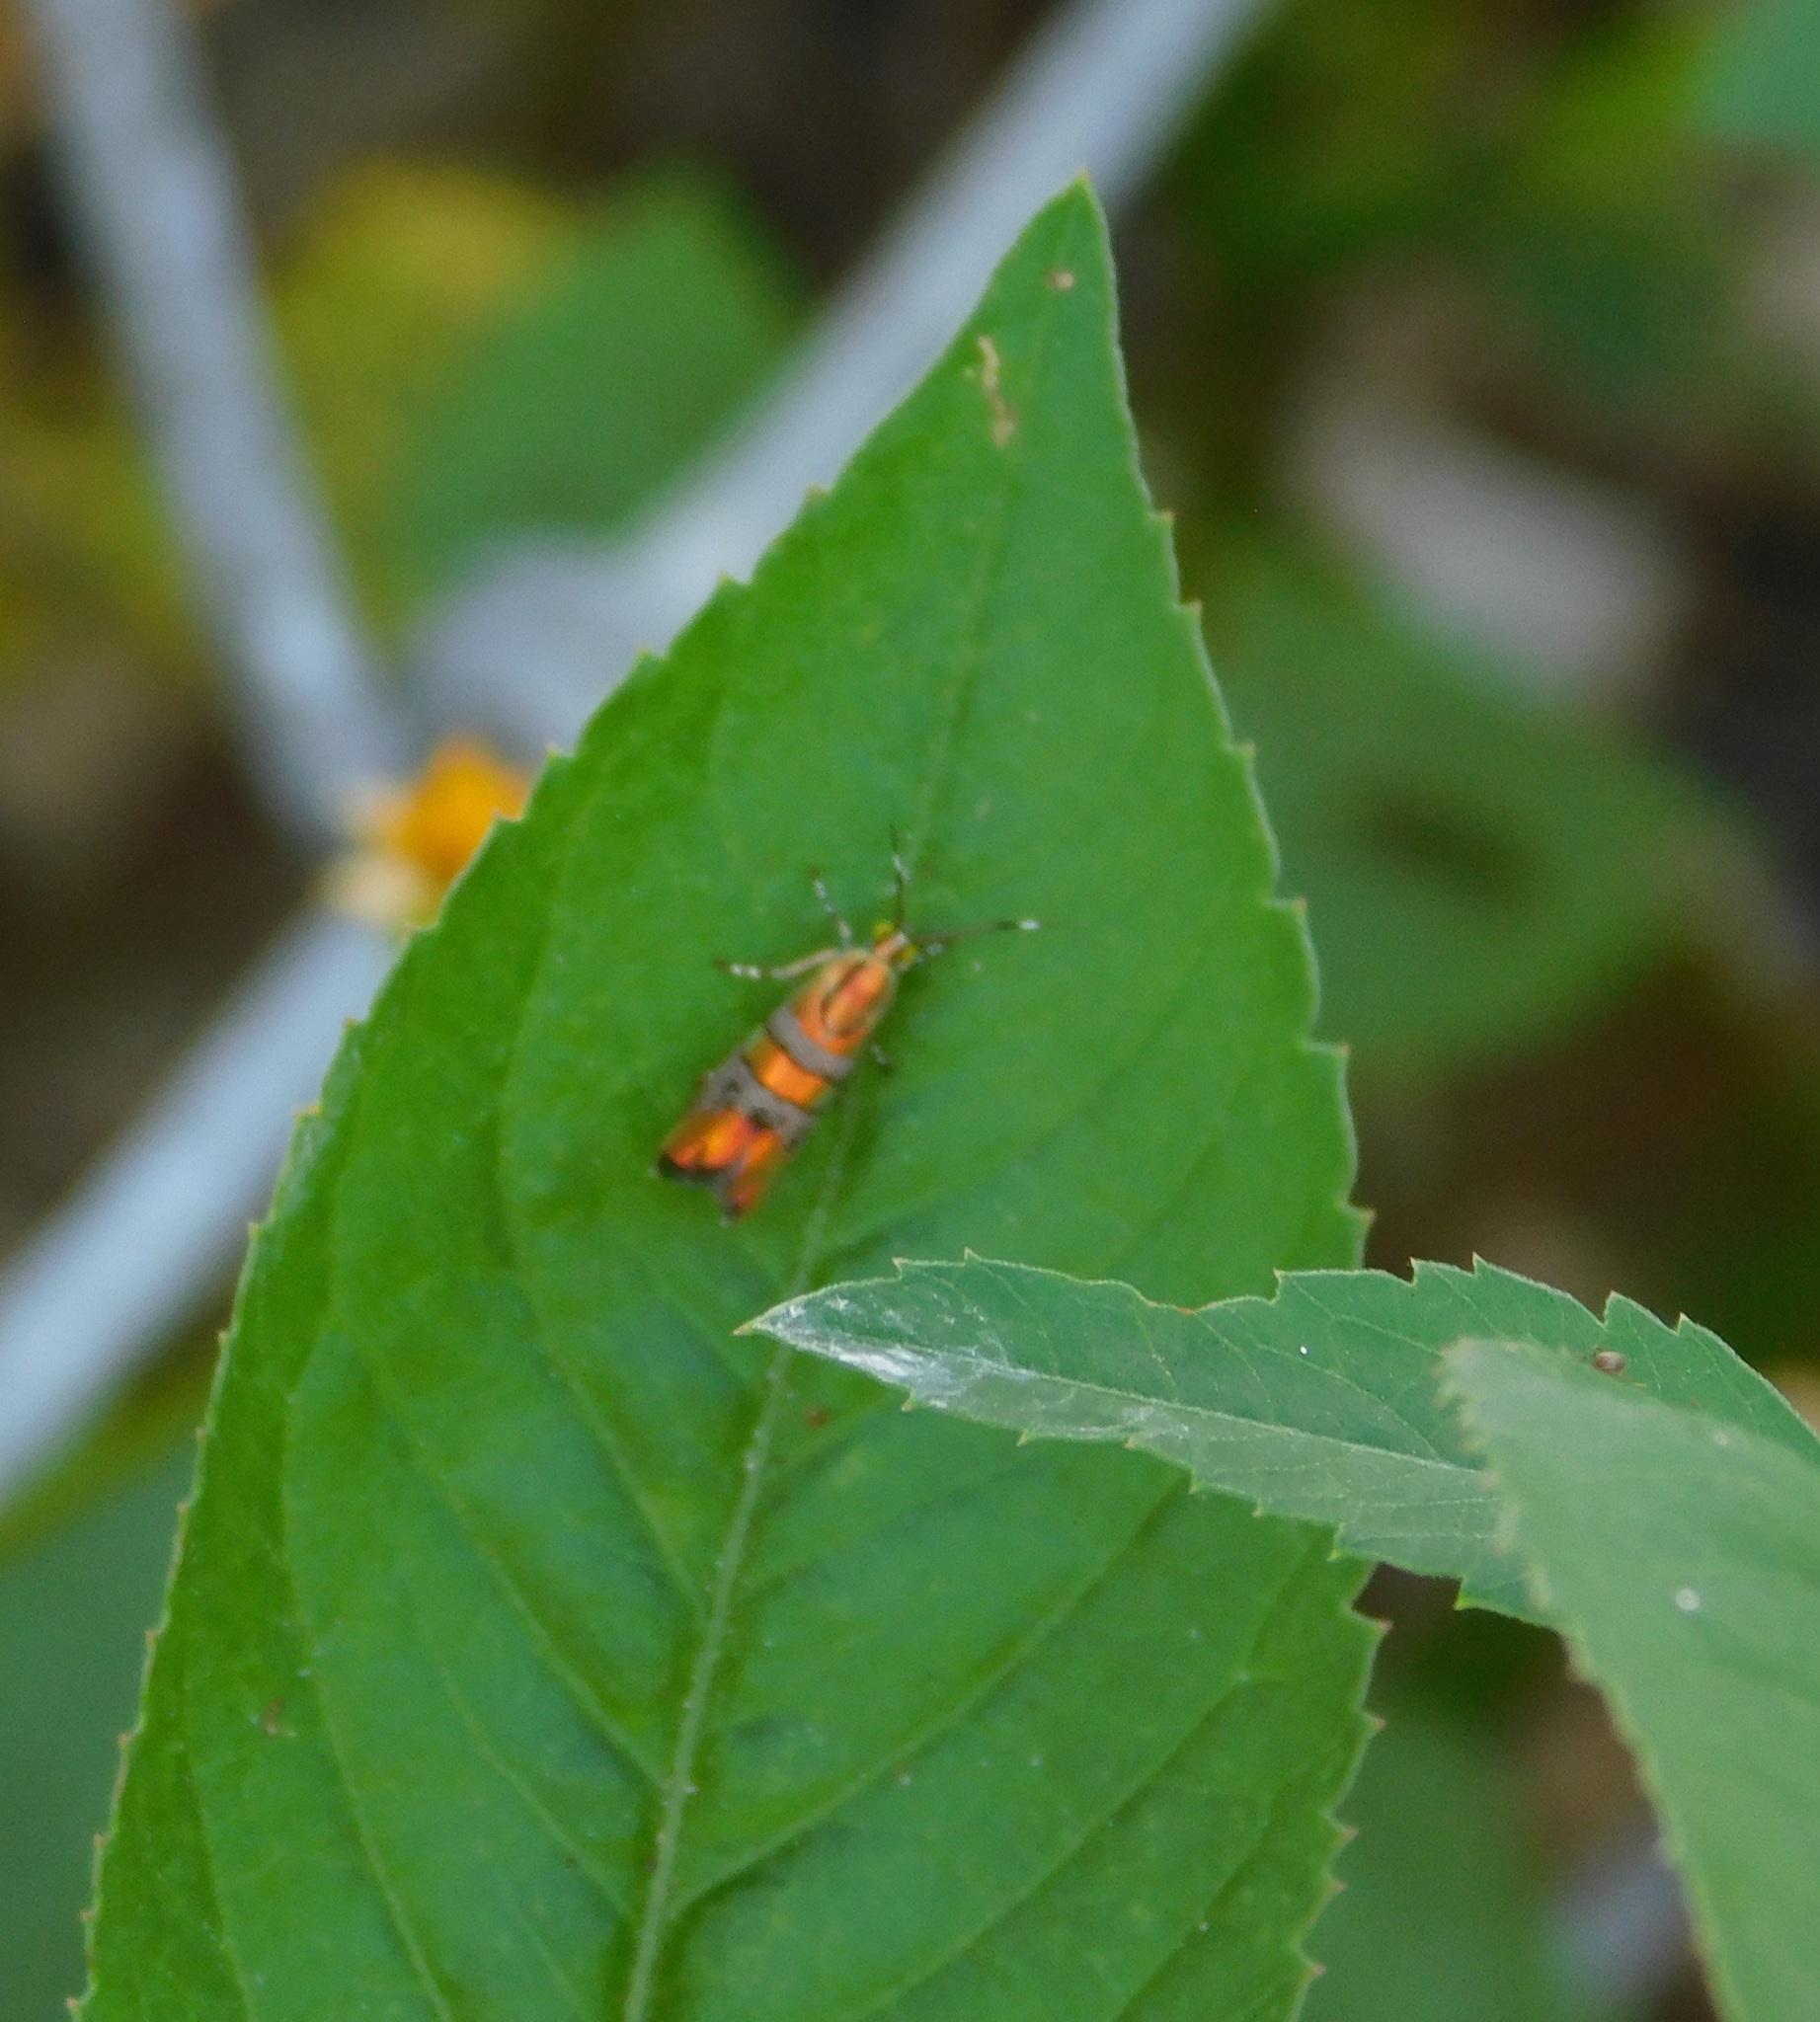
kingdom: Animalia
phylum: Arthropoda
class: Insecta
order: Lepidoptera
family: Choreutidae
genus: Tortyra
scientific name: Tortyra slossonia
